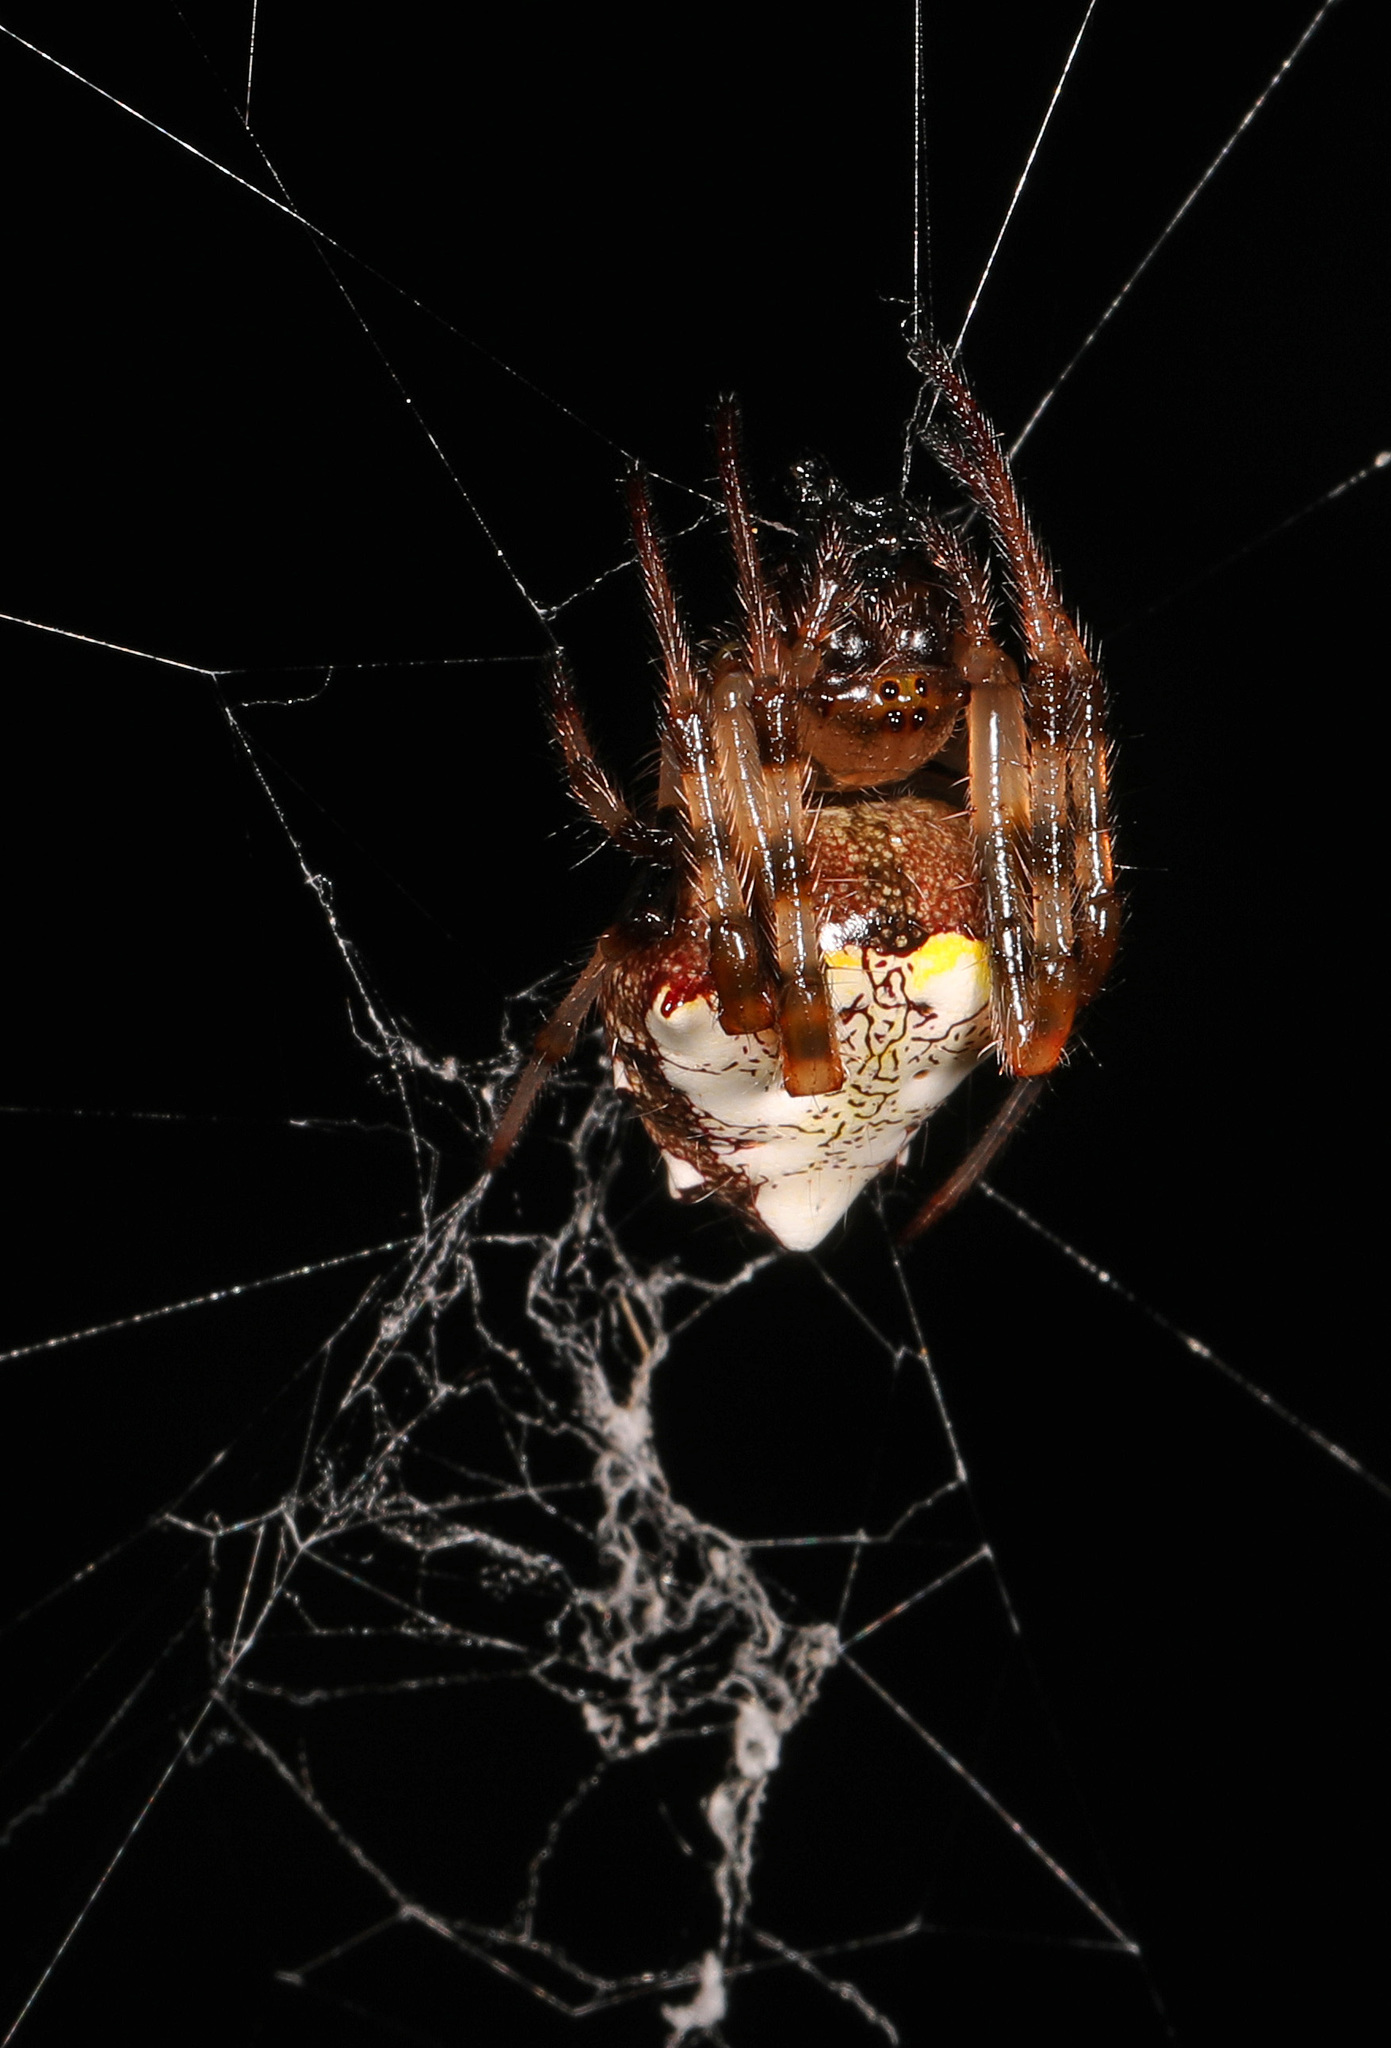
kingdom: Animalia
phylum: Arthropoda
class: Arachnida
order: Araneae
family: Araneidae
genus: Verrucosa
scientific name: Verrucosa arenata
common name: Orb weavers
